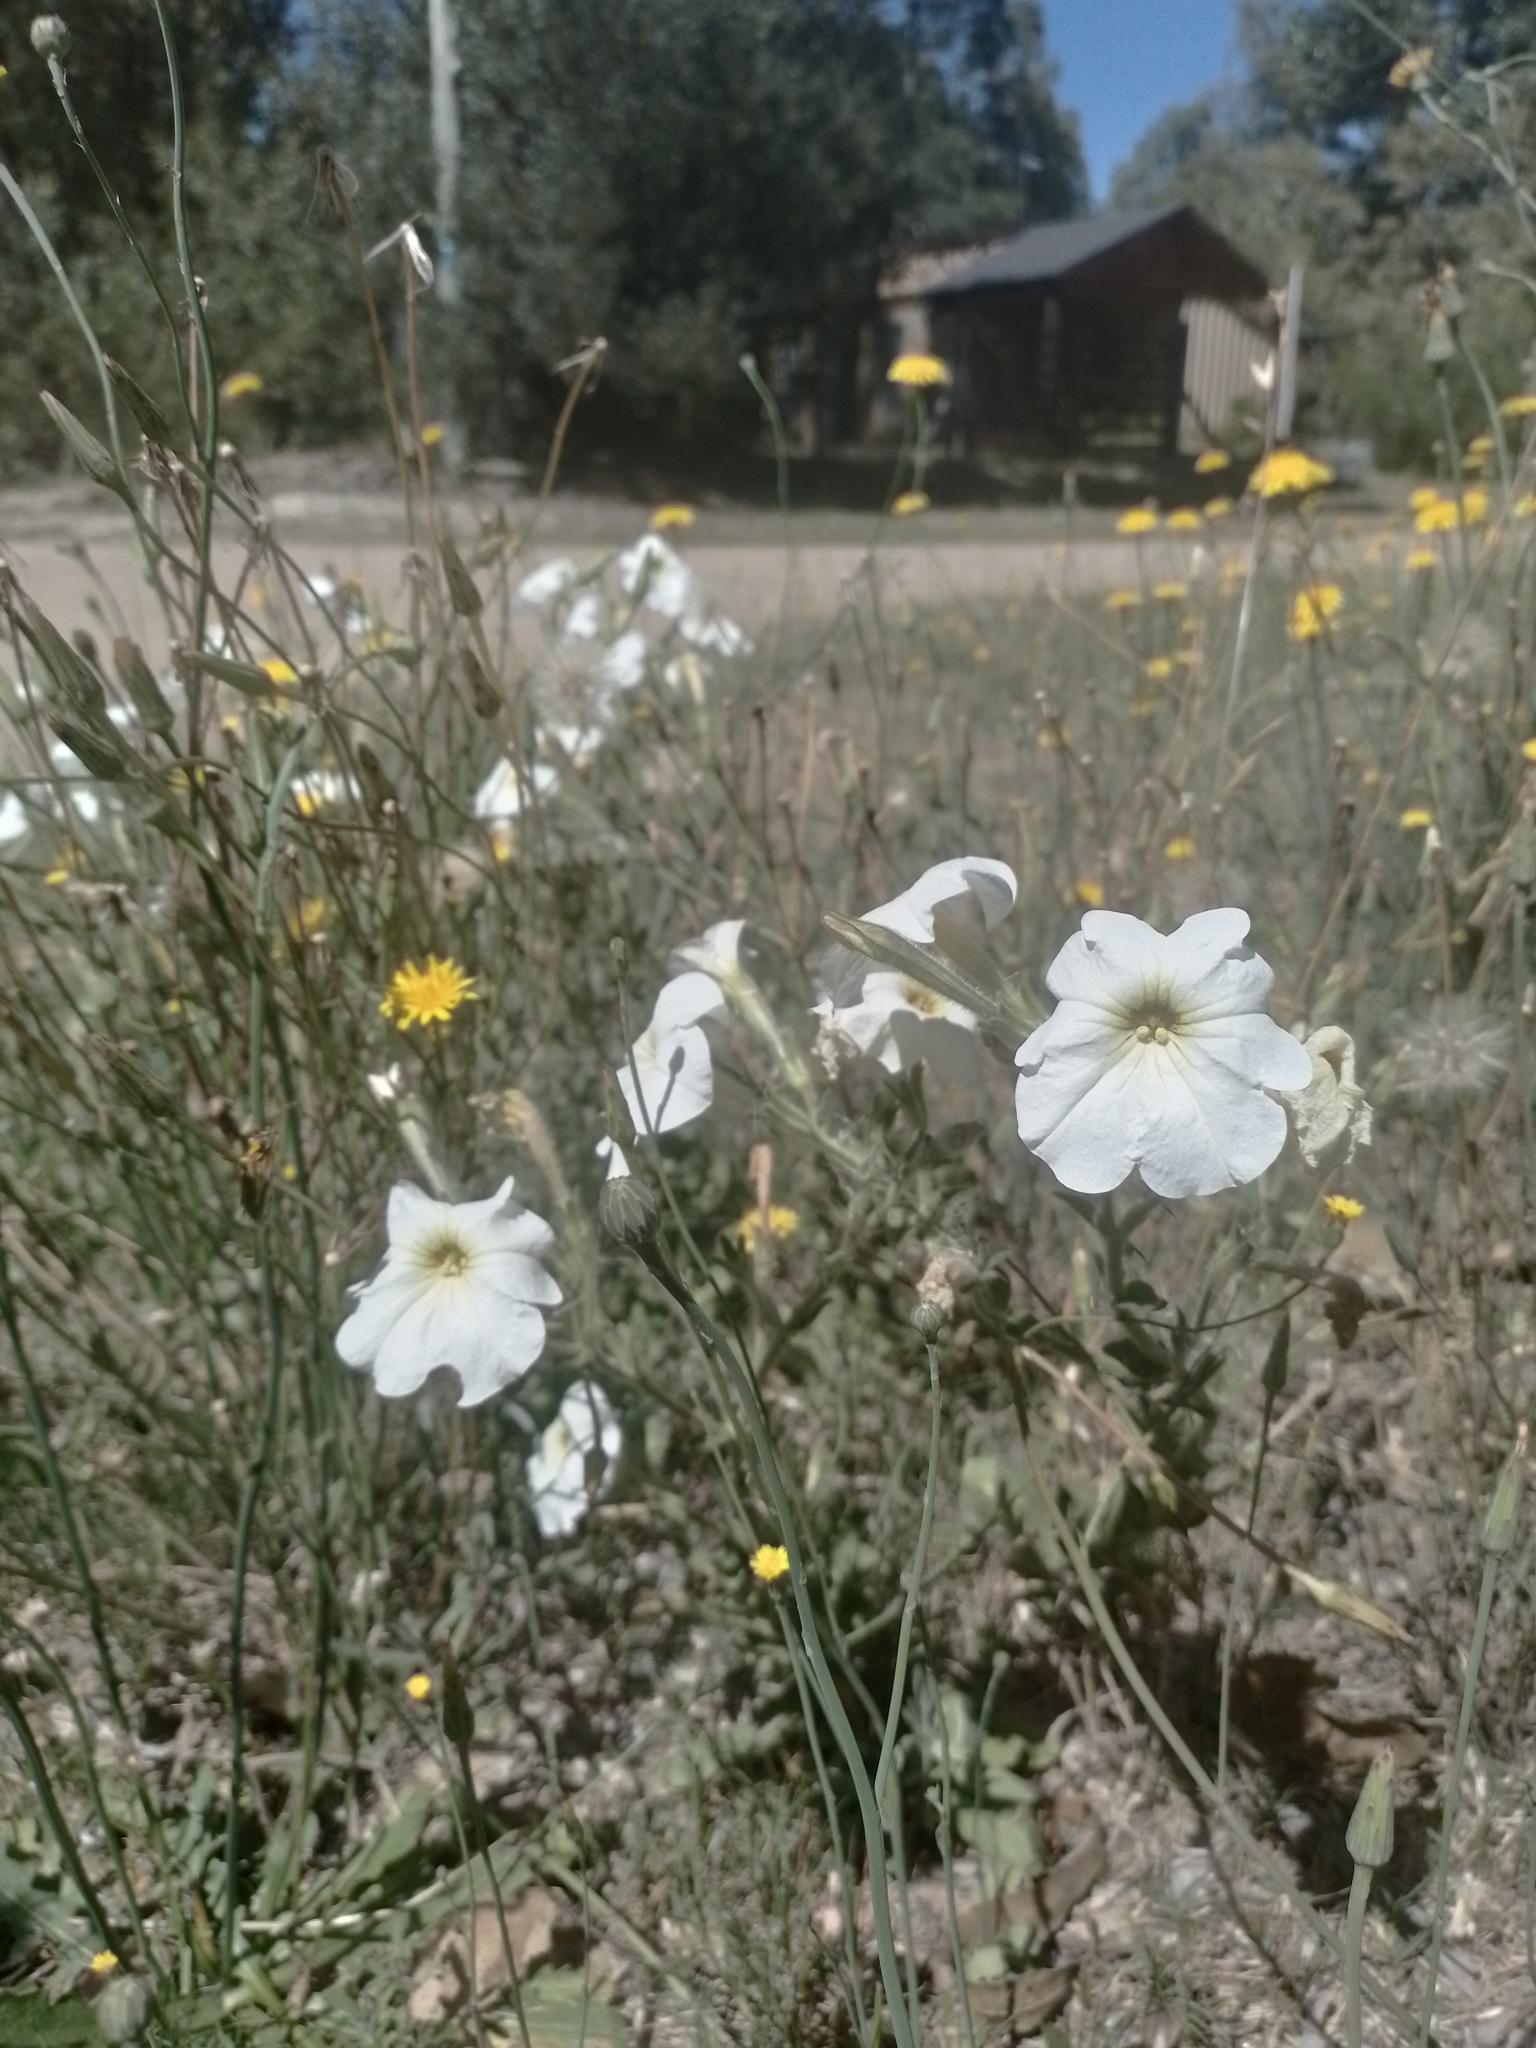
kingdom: Plantae
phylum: Tracheophyta
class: Magnoliopsida
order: Solanales
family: Solanaceae
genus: Petunia
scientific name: Petunia axillaris
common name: Large white petunia
